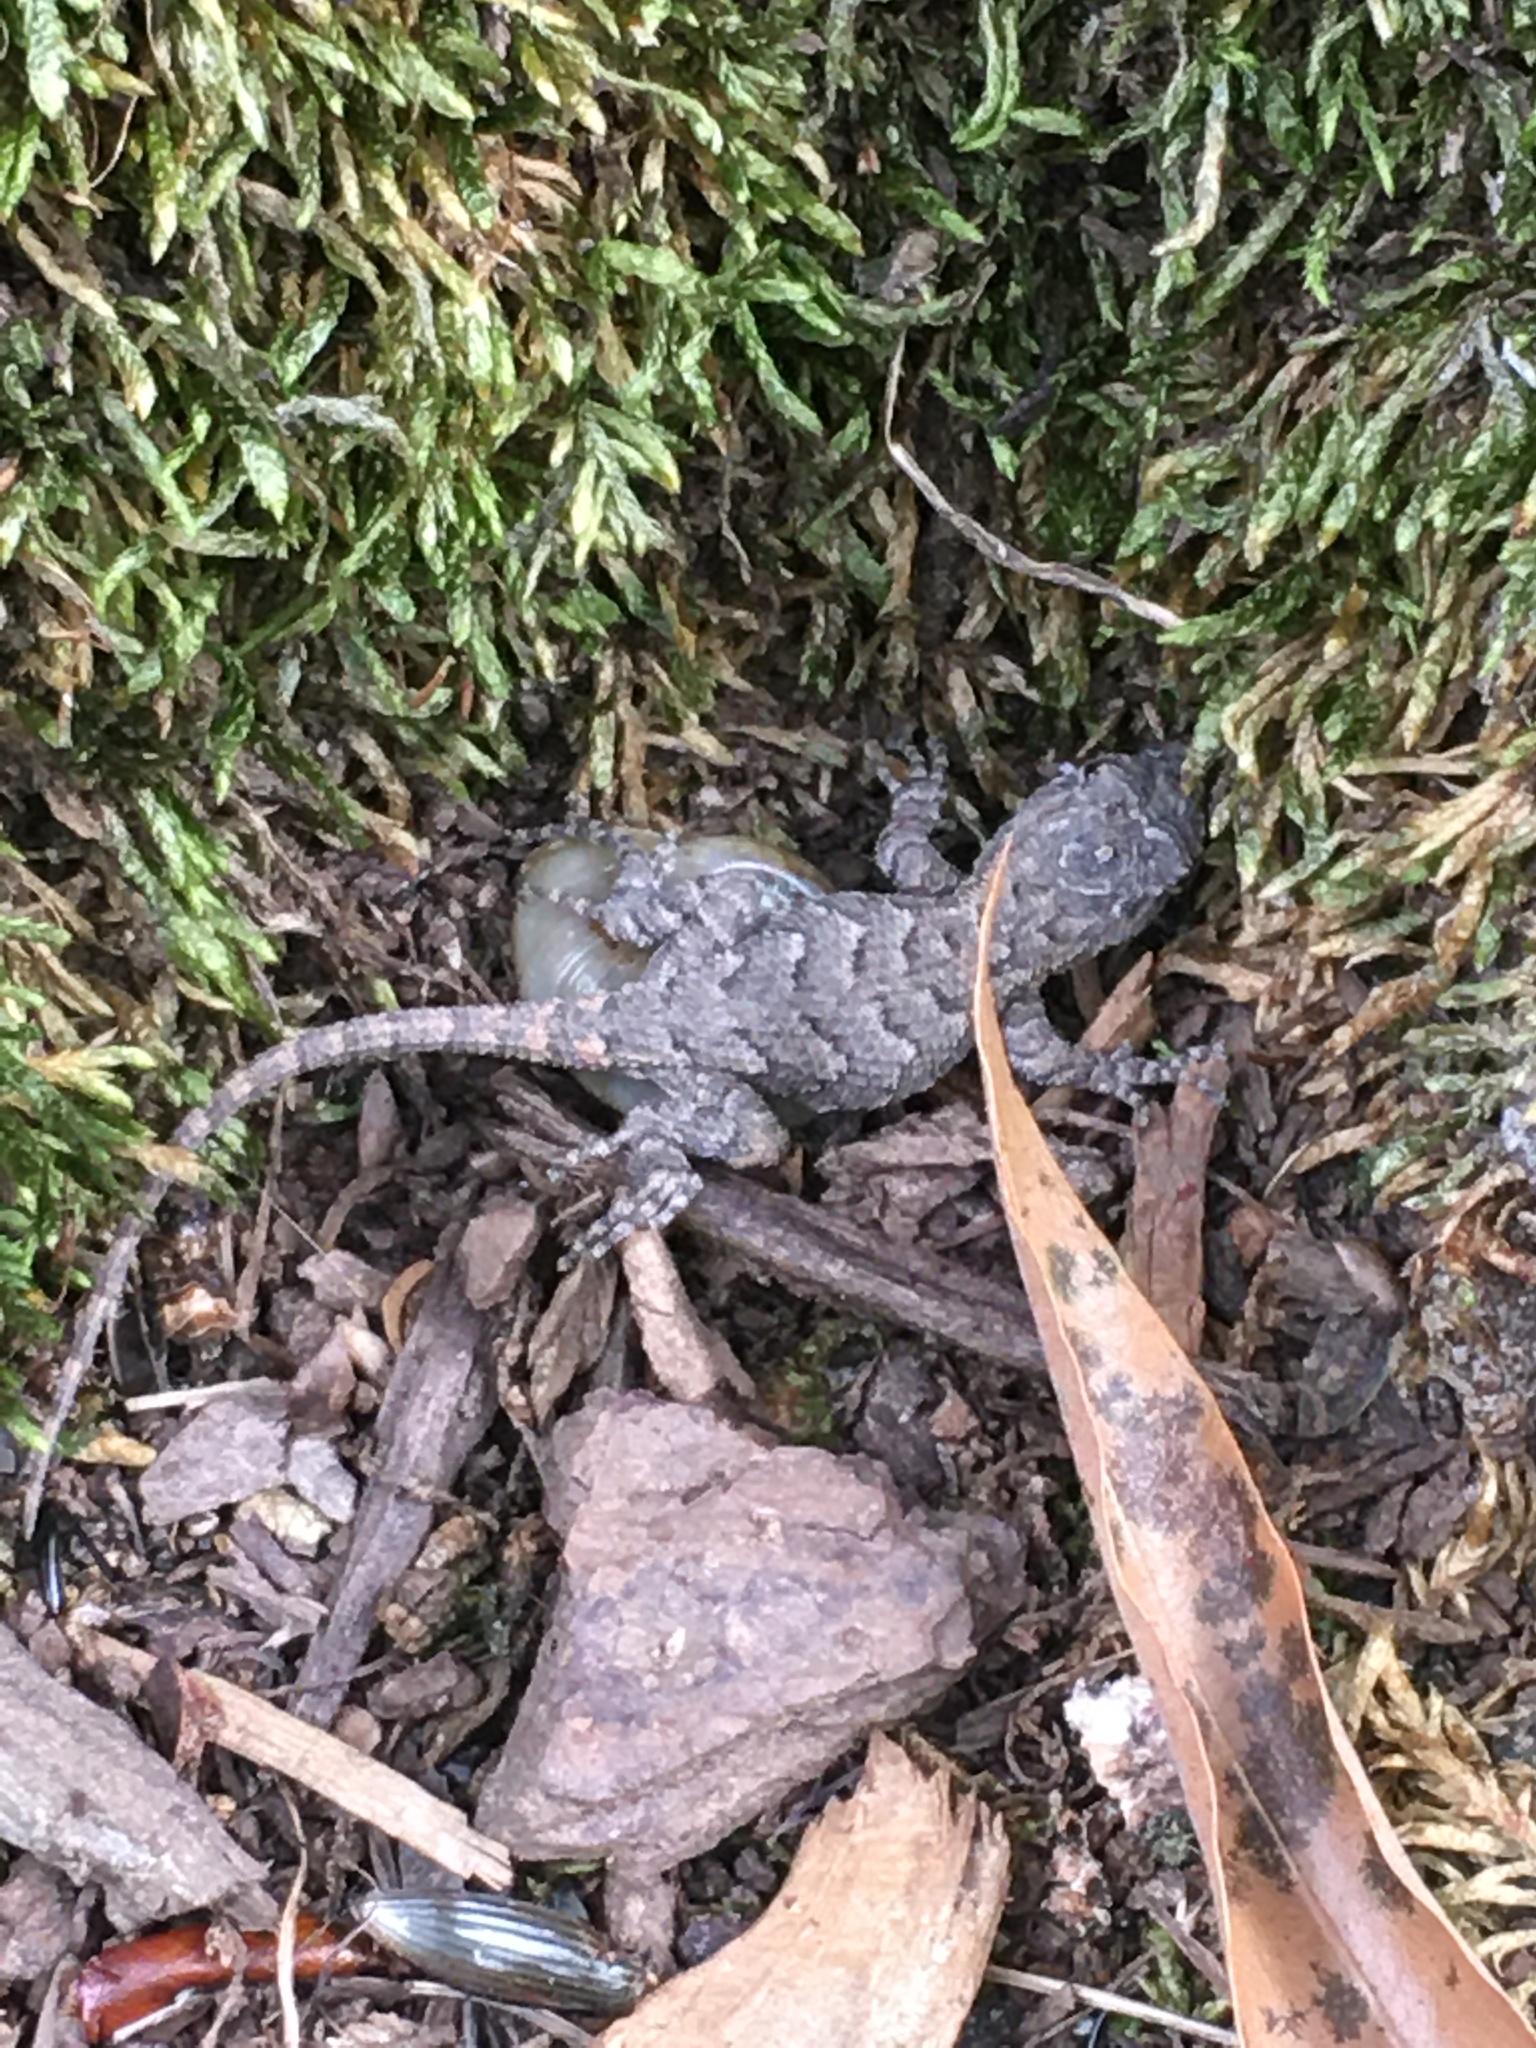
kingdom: Animalia
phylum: Chordata
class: Squamata
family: Phrynosomatidae
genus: Sceloporus
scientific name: Sceloporus undulatus
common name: Eastern fence lizard
